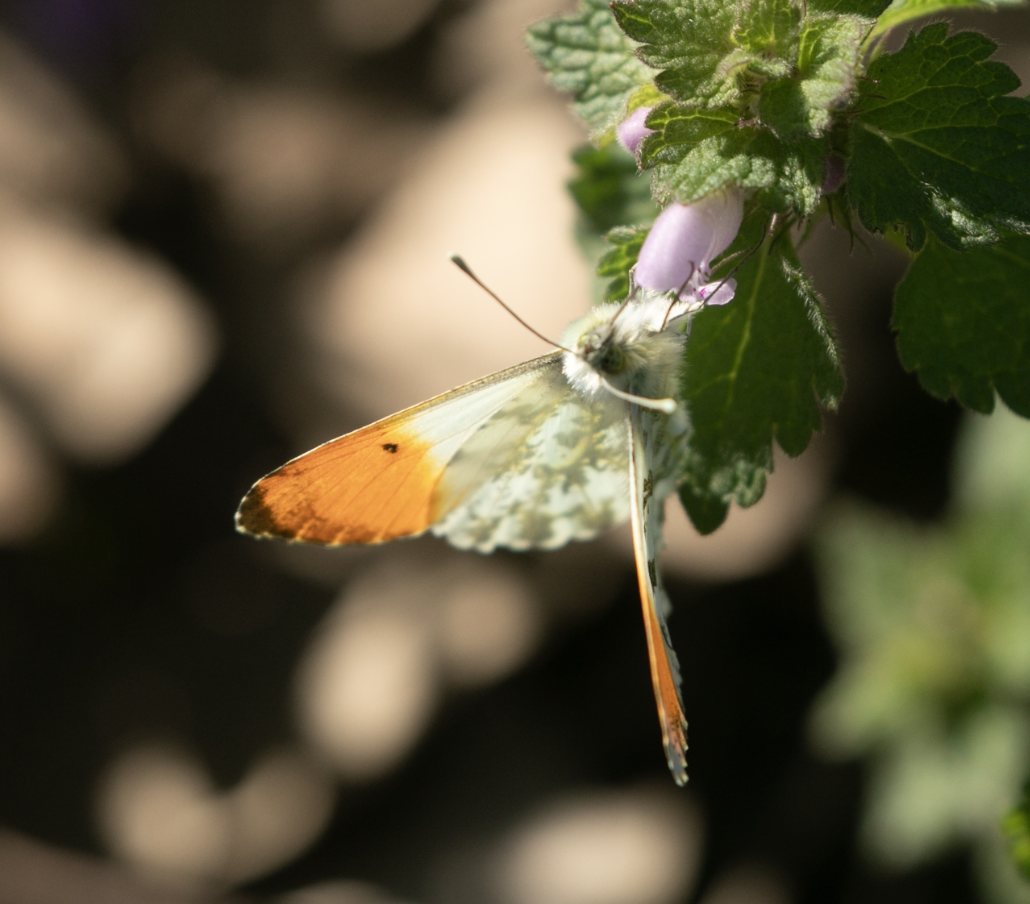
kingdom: Animalia
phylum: Arthropoda
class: Insecta
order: Lepidoptera
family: Pieridae
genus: Anthocharis
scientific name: Anthocharis cardamines
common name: Orange-tip
